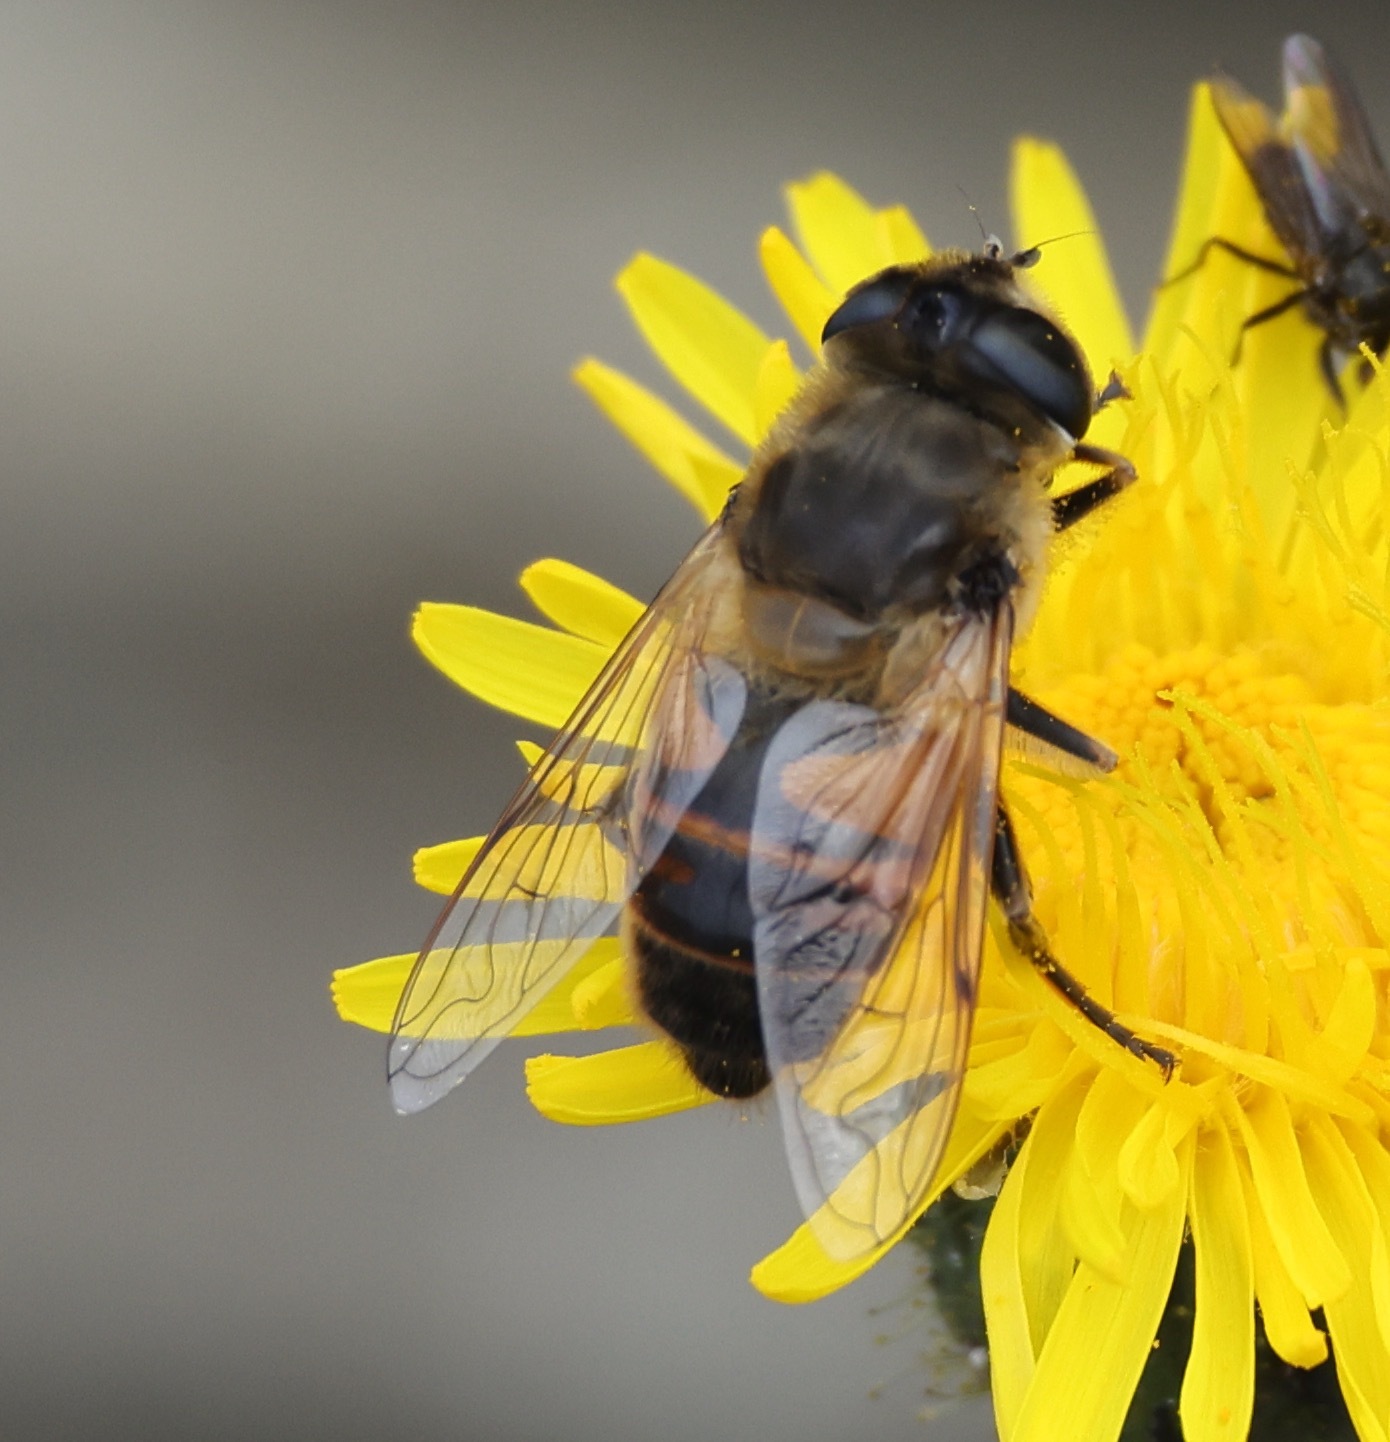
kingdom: Animalia
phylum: Arthropoda
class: Insecta
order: Diptera
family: Syrphidae
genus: Eristalis
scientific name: Eristalis tenax
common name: Drone fly
